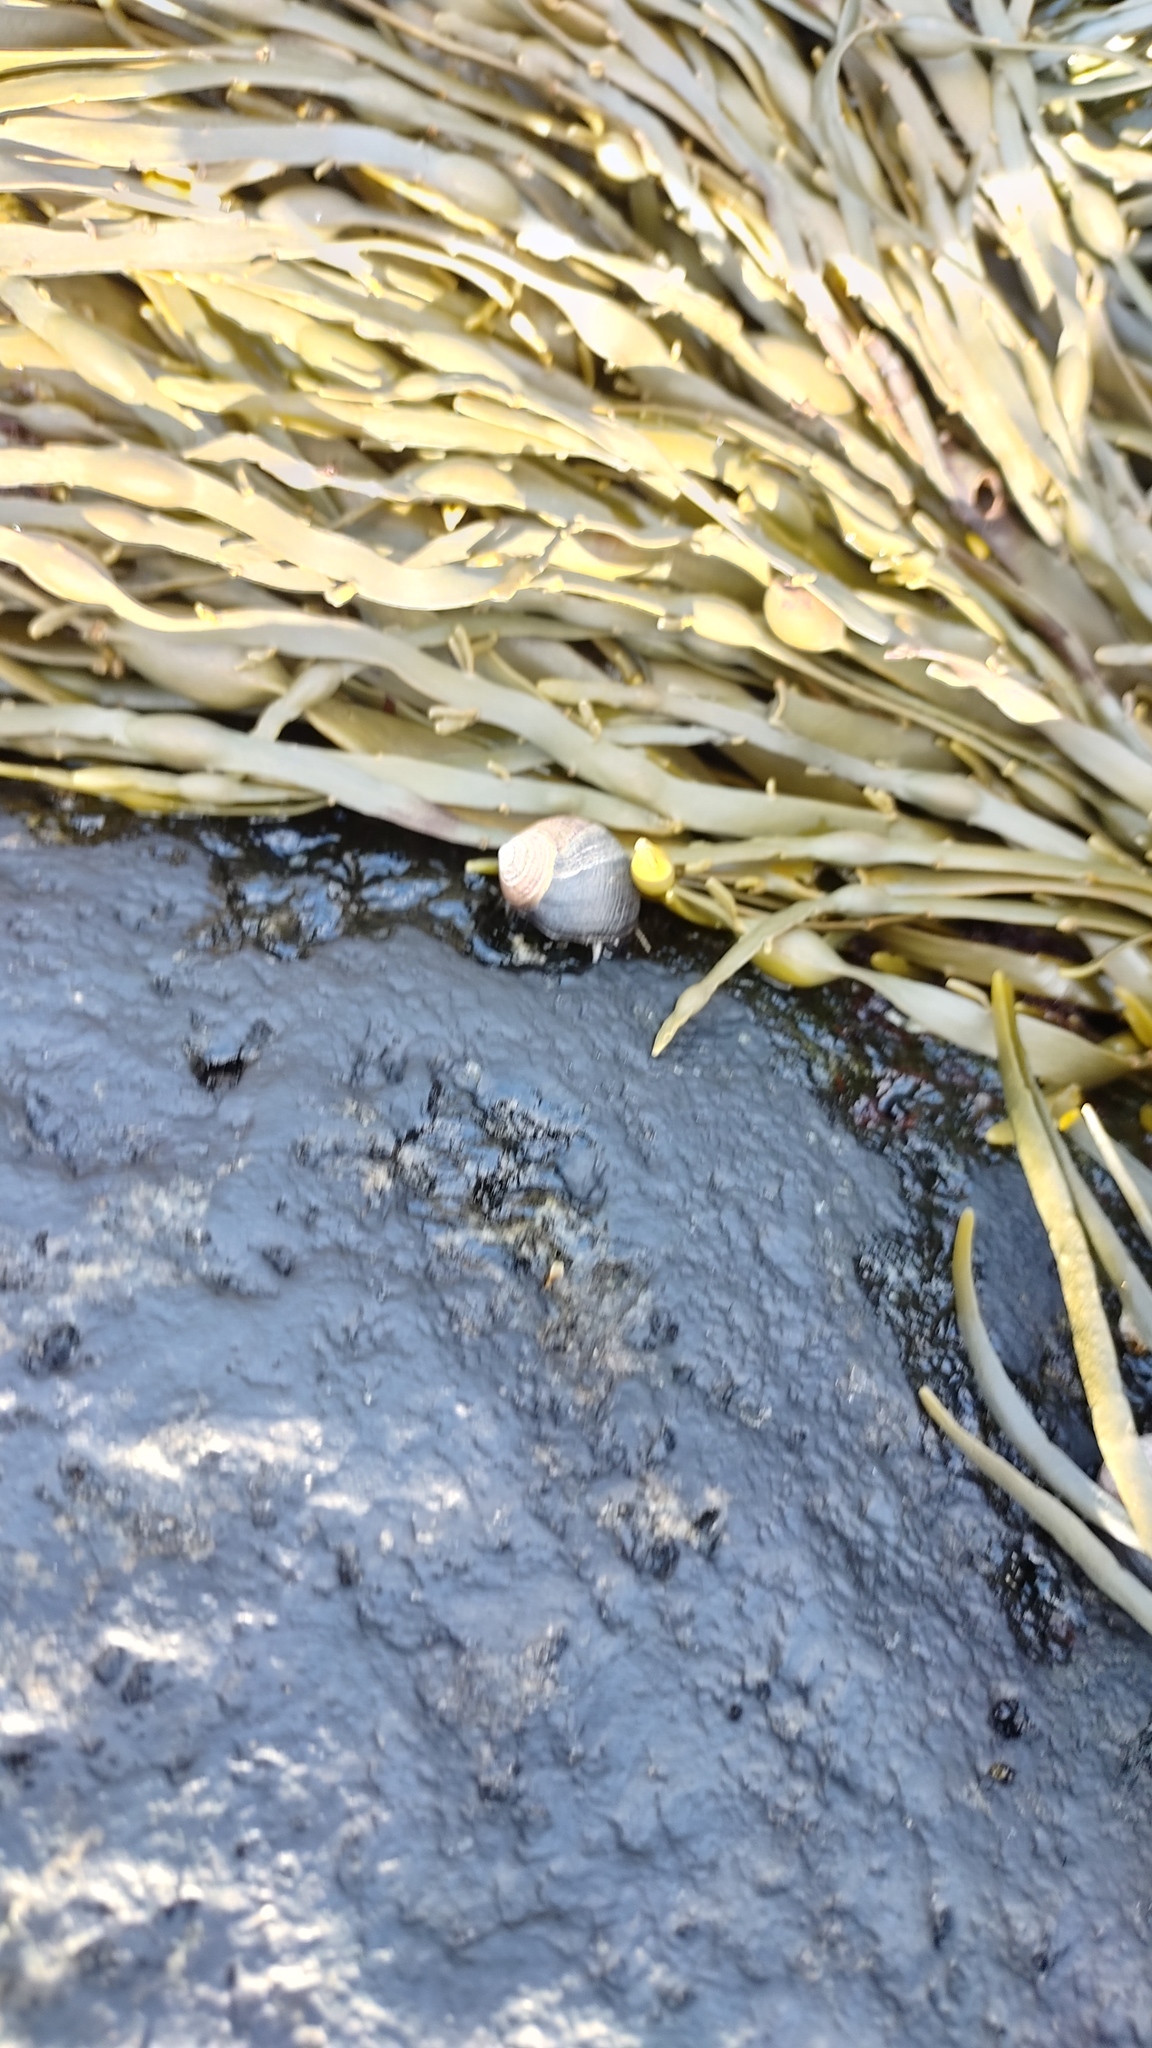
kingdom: Animalia
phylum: Mollusca
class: Gastropoda
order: Littorinimorpha
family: Littorinidae
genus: Littorina
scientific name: Littorina littorea
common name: Common periwinkle
